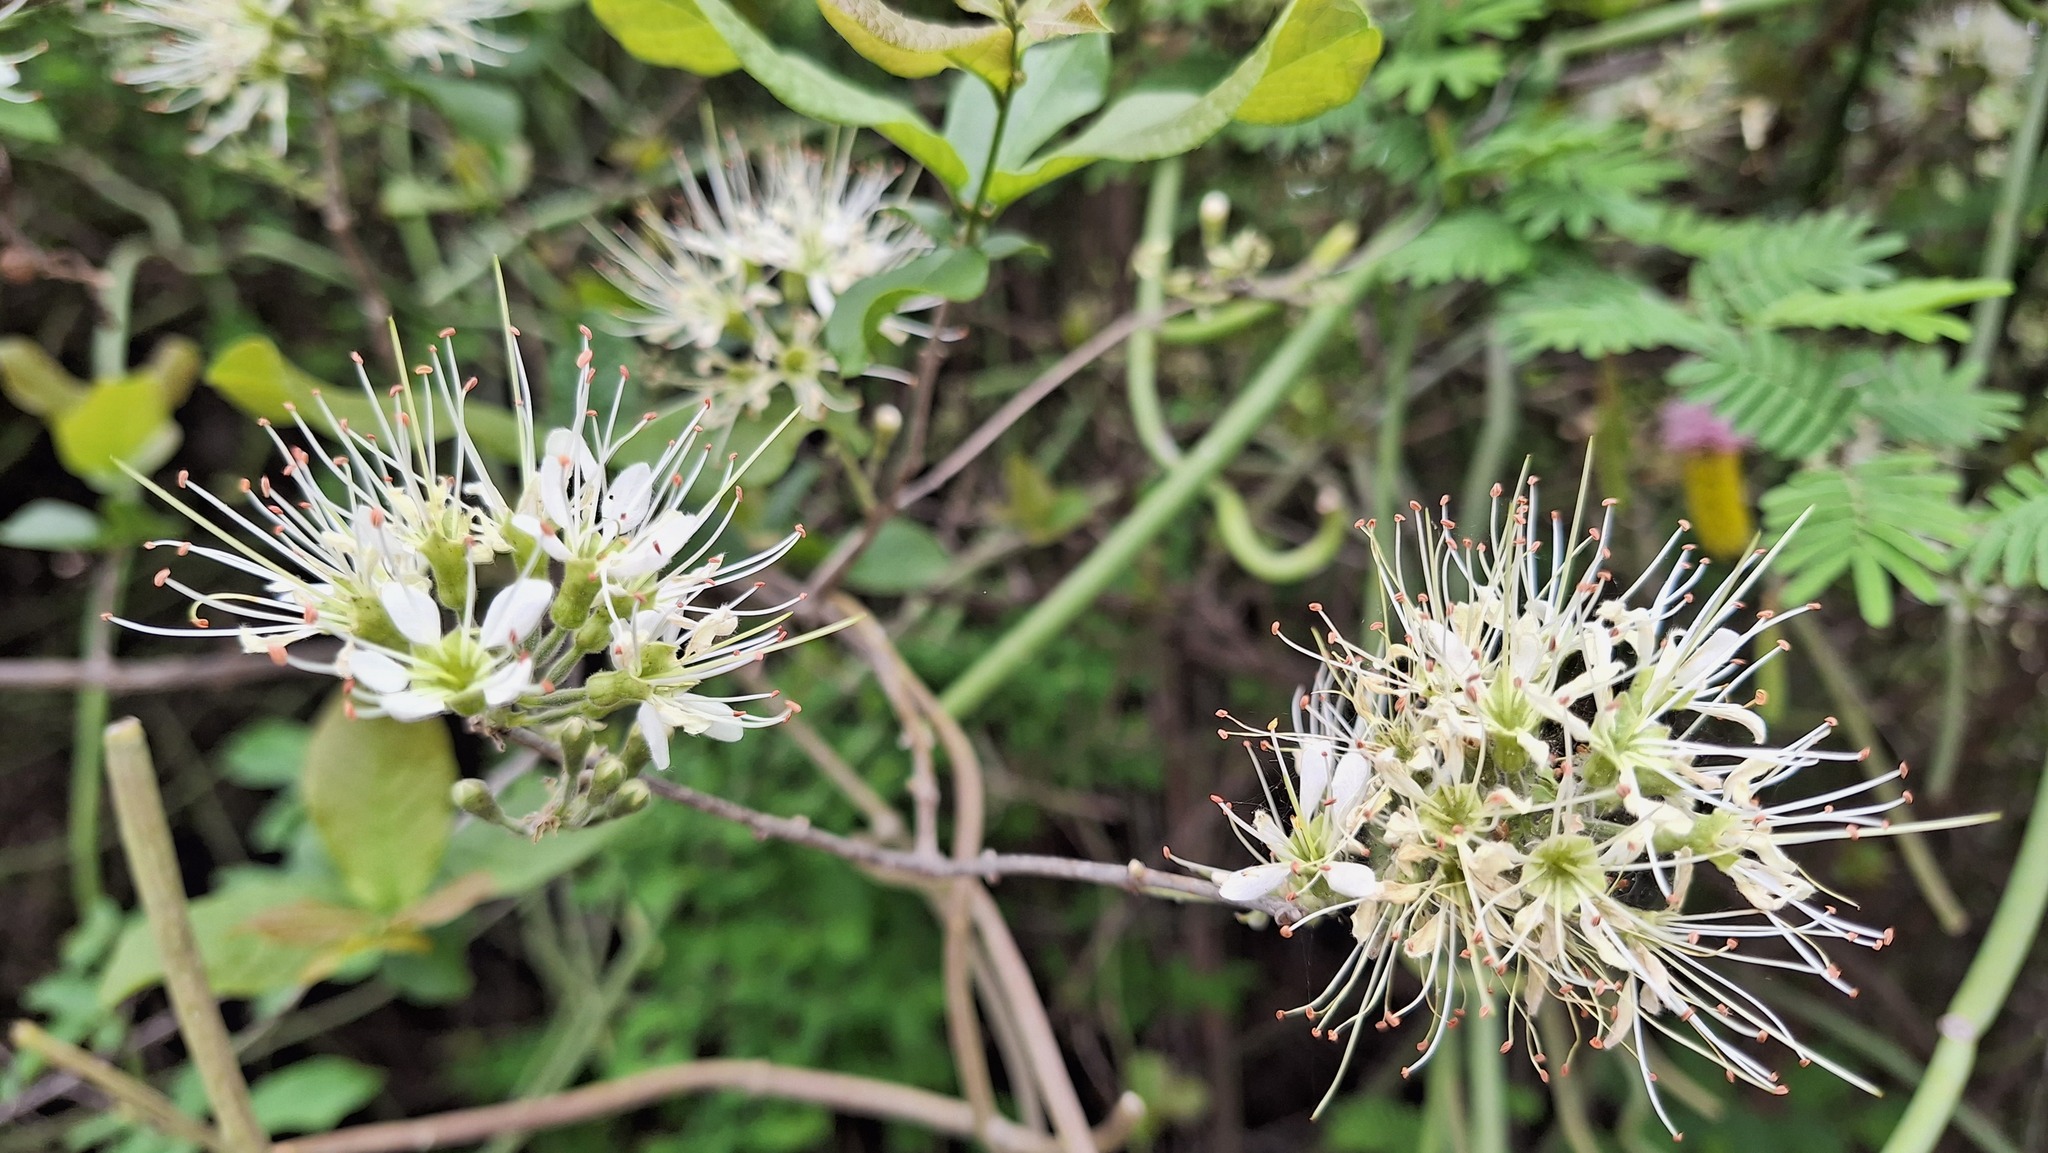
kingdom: Plantae
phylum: Tracheophyta
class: Magnoliopsida
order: Myrtales
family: Combretaceae
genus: Combretum
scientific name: Combretum mossambicense
